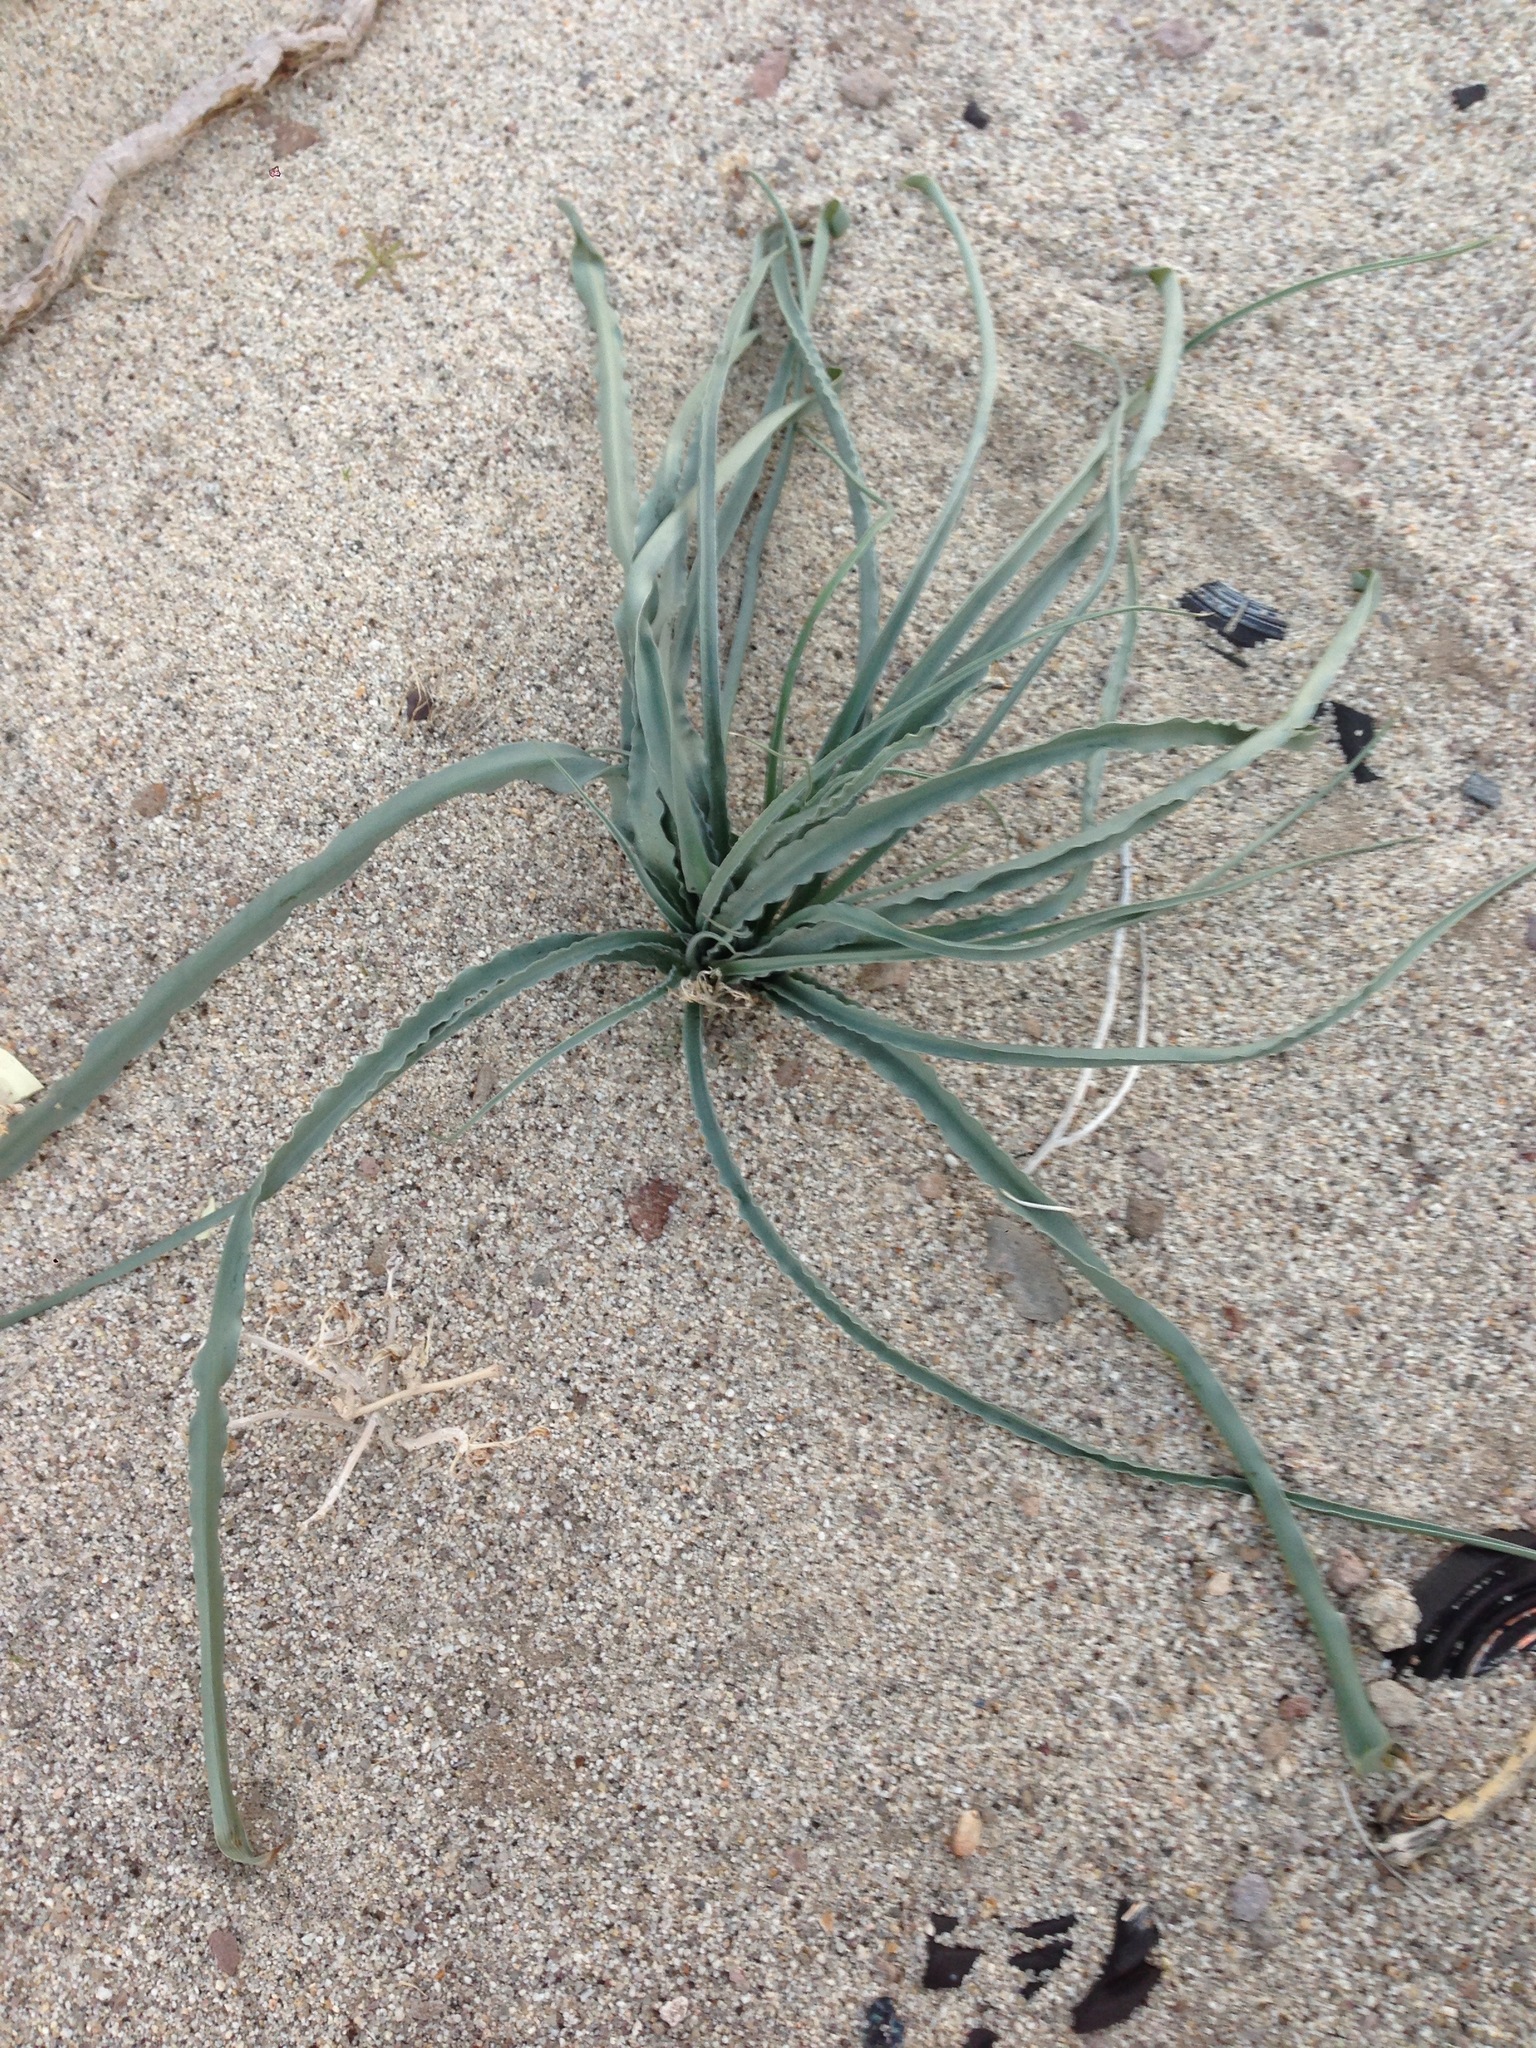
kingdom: Plantae
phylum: Tracheophyta
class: Liliopsida
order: Asparagales
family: Asparagaceae
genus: Hesperocallis
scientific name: Hesperocallis undulata
